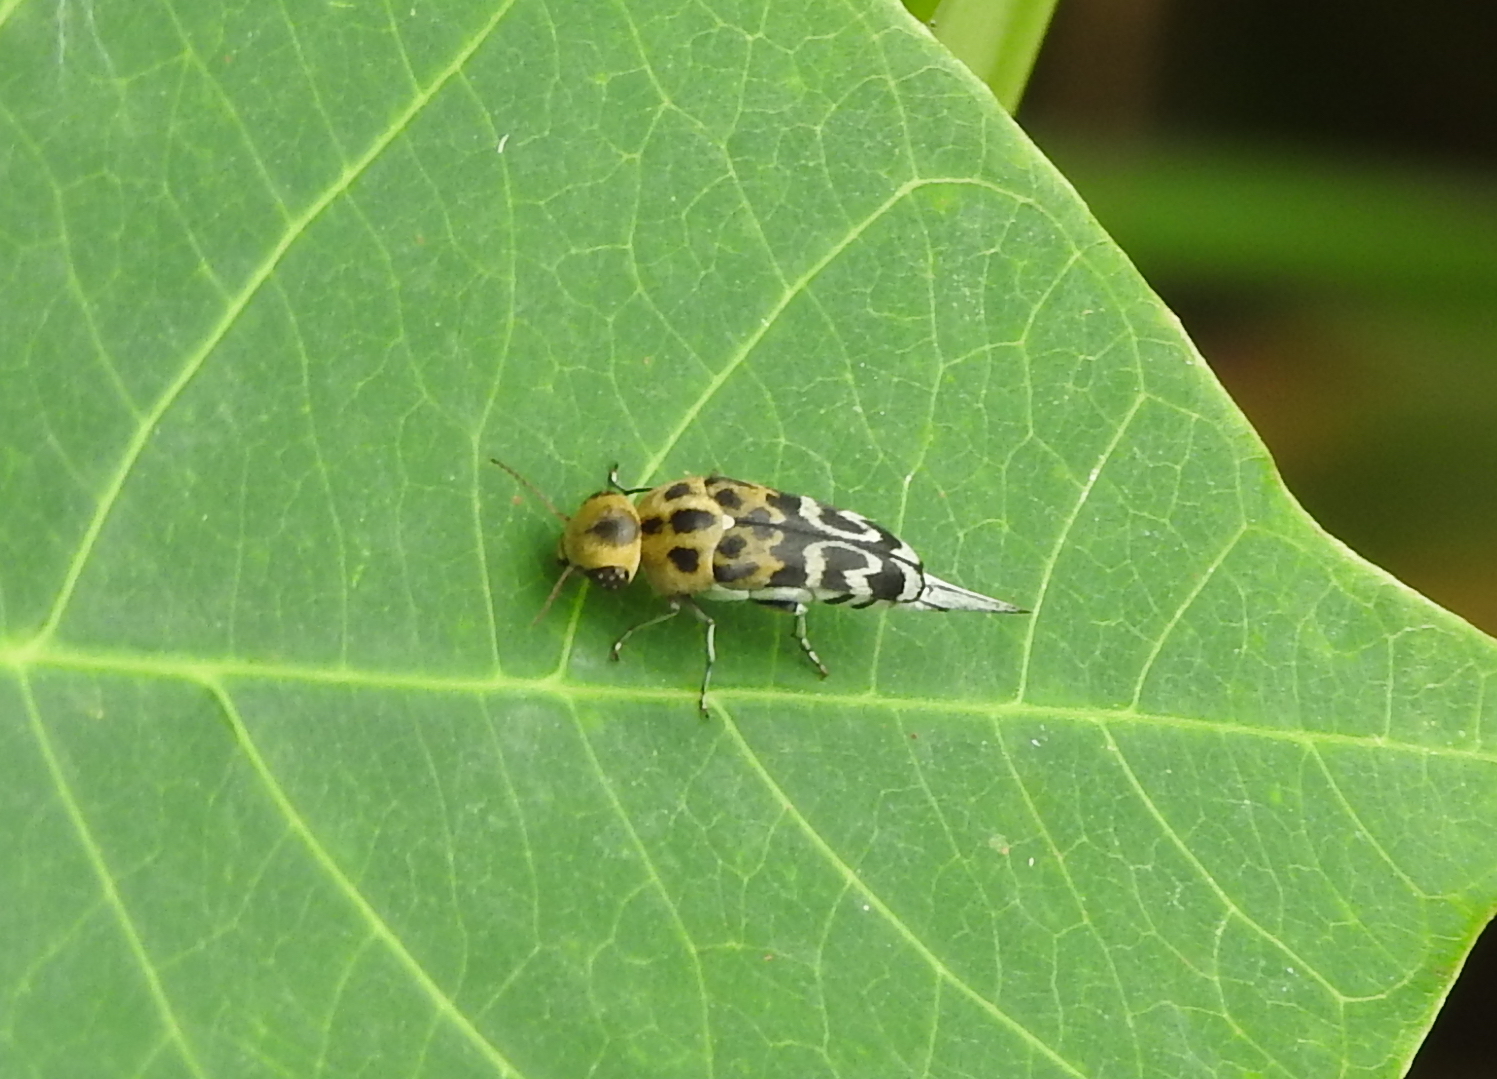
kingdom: Animalia
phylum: Arthropoda
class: Insecta
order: Coleoptera
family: Mordellidae
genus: Glipa
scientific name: Glipa
